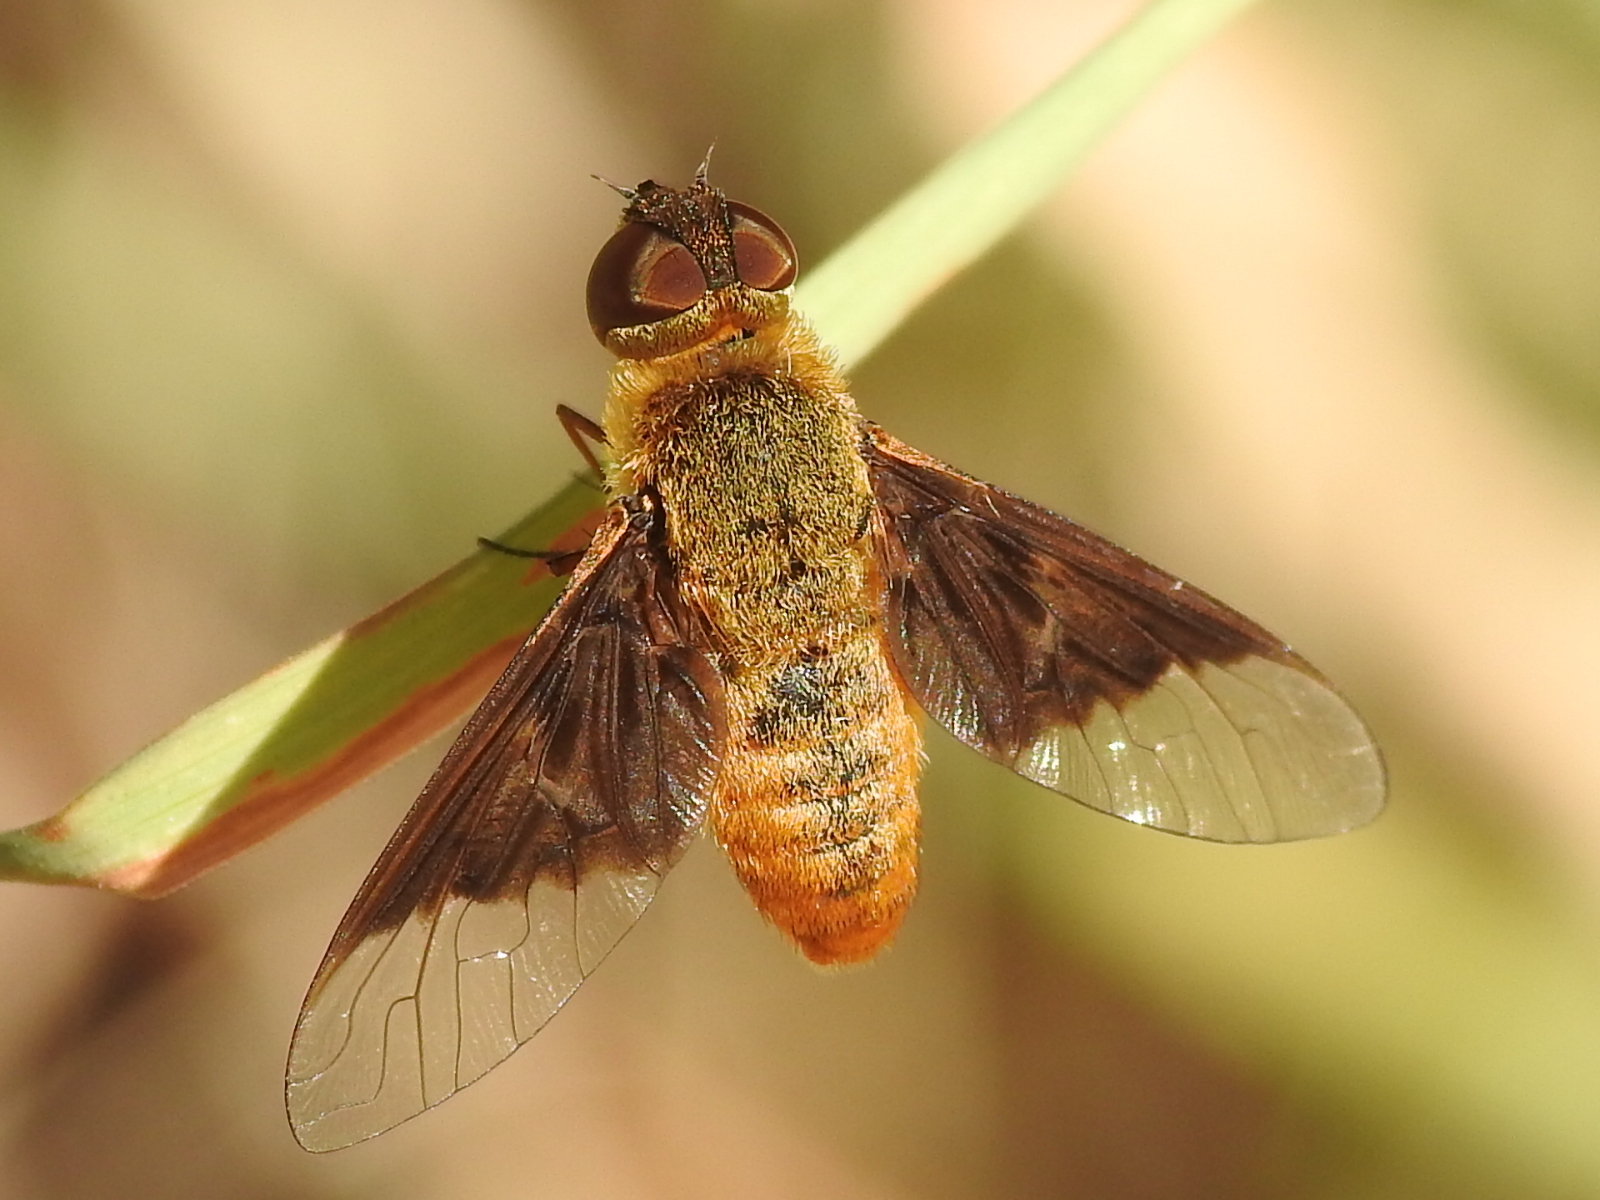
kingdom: Animalia
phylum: Arthropoda
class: Insecta
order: Diptera
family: Bombyliidae
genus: Chrysanthrax
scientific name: Chrysanthrax cypris
